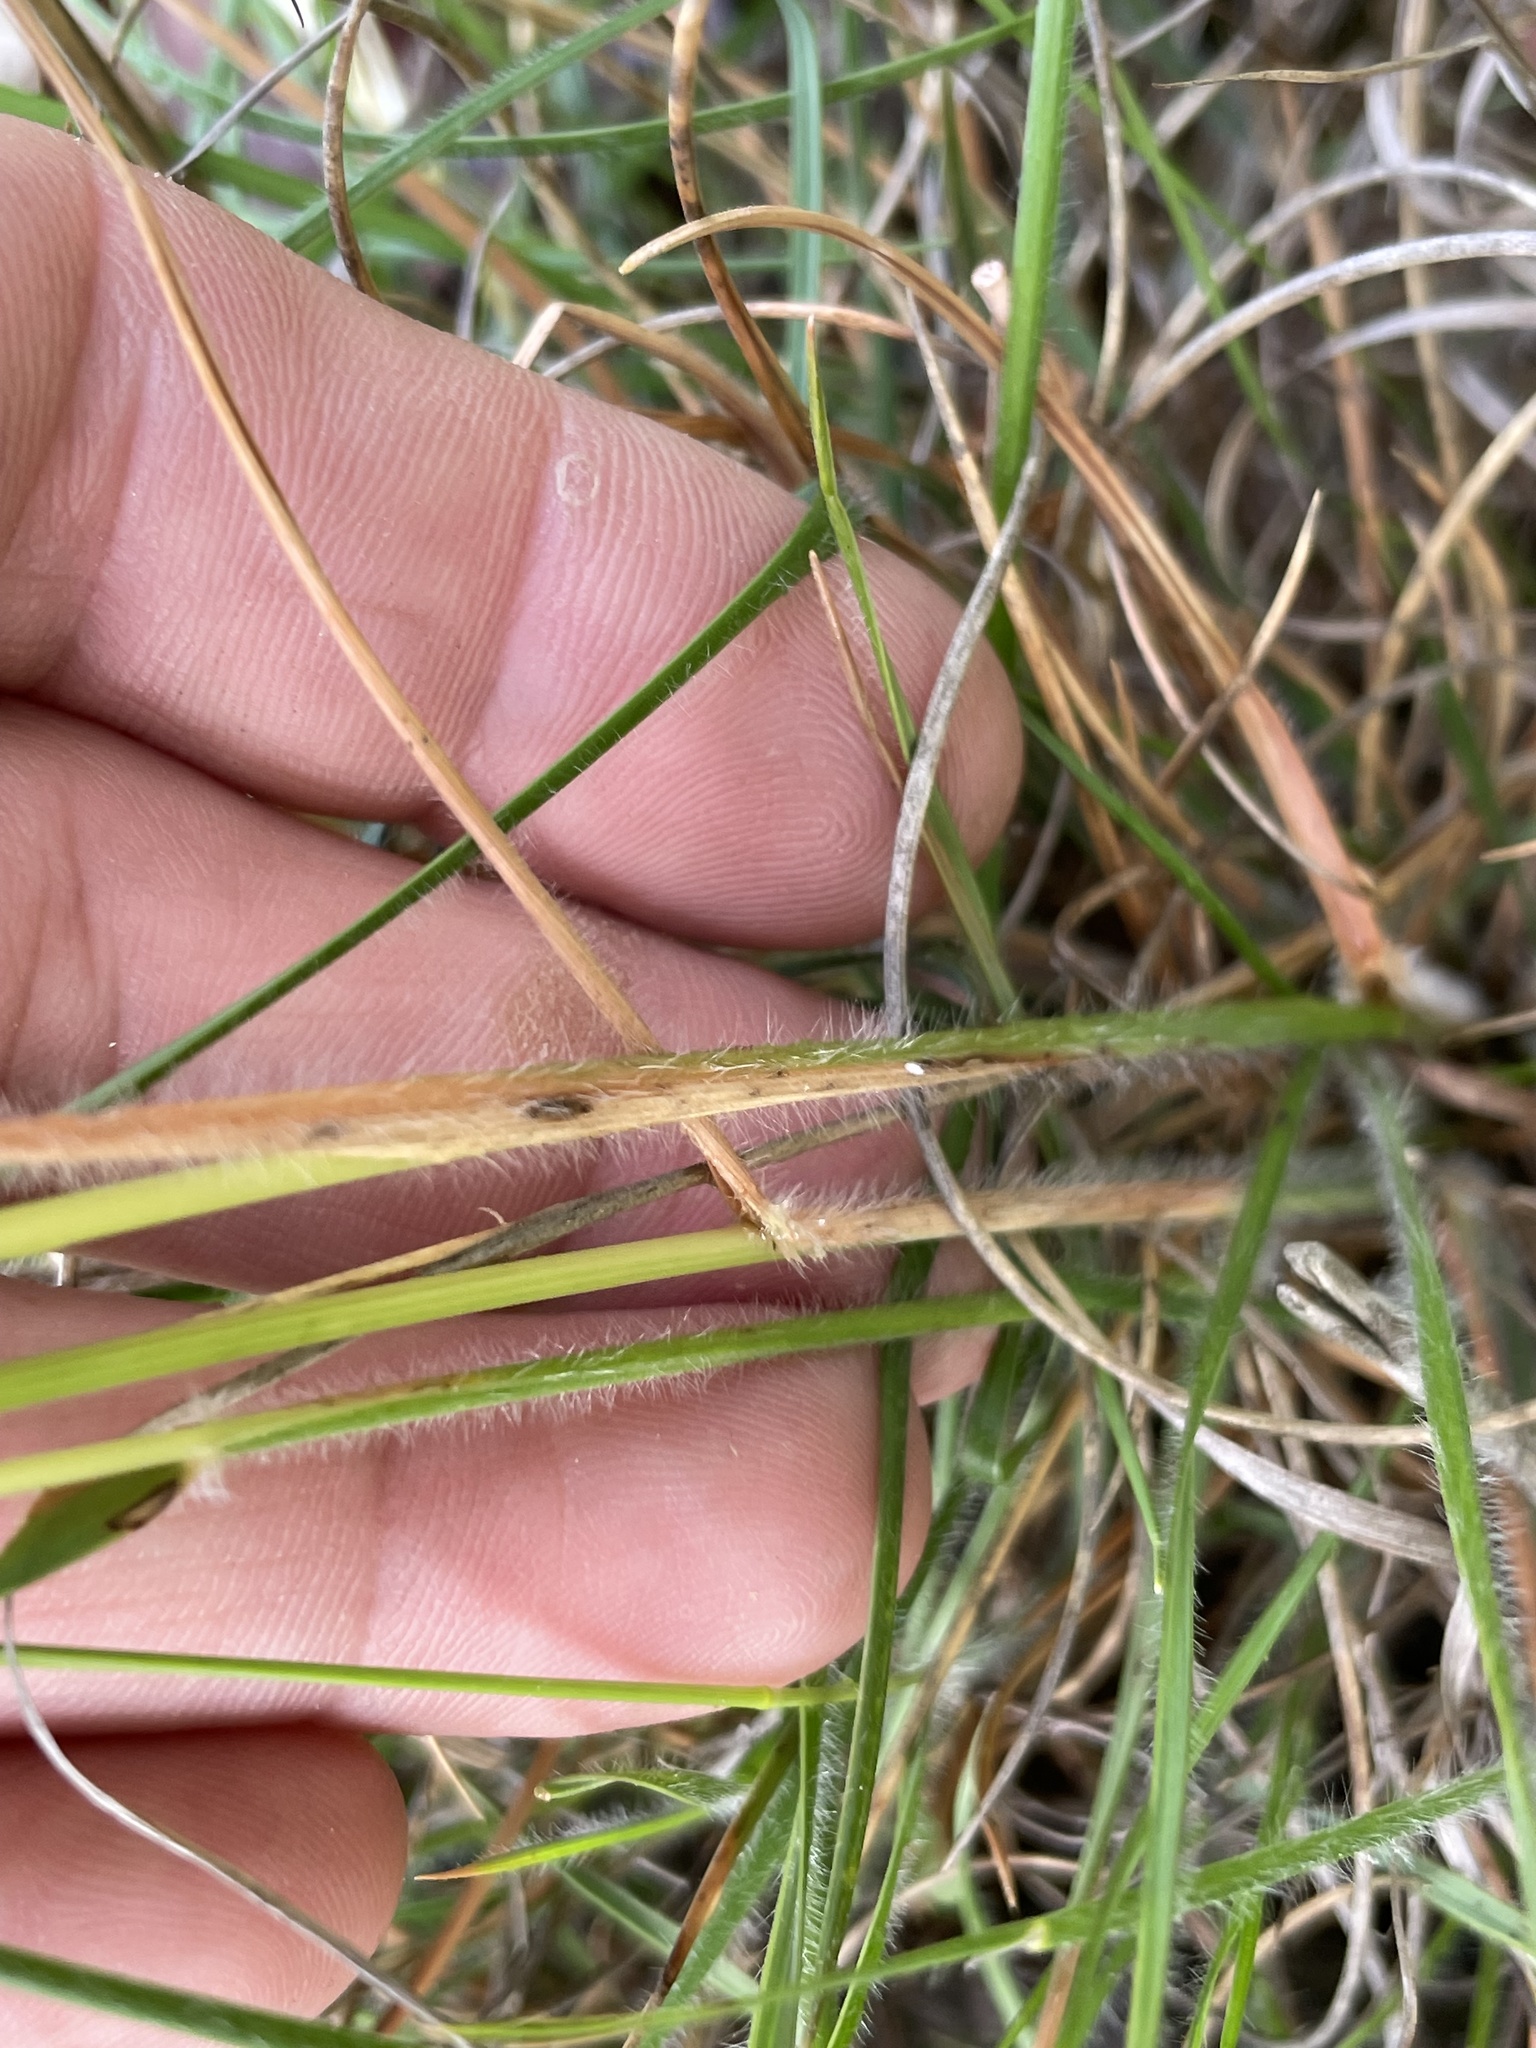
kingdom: Plantae
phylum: Tracheophyta
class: Liliopsida
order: Poales
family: Poaceae
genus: Danthonia
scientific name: Danthonia sericea
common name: Downy danthonia
